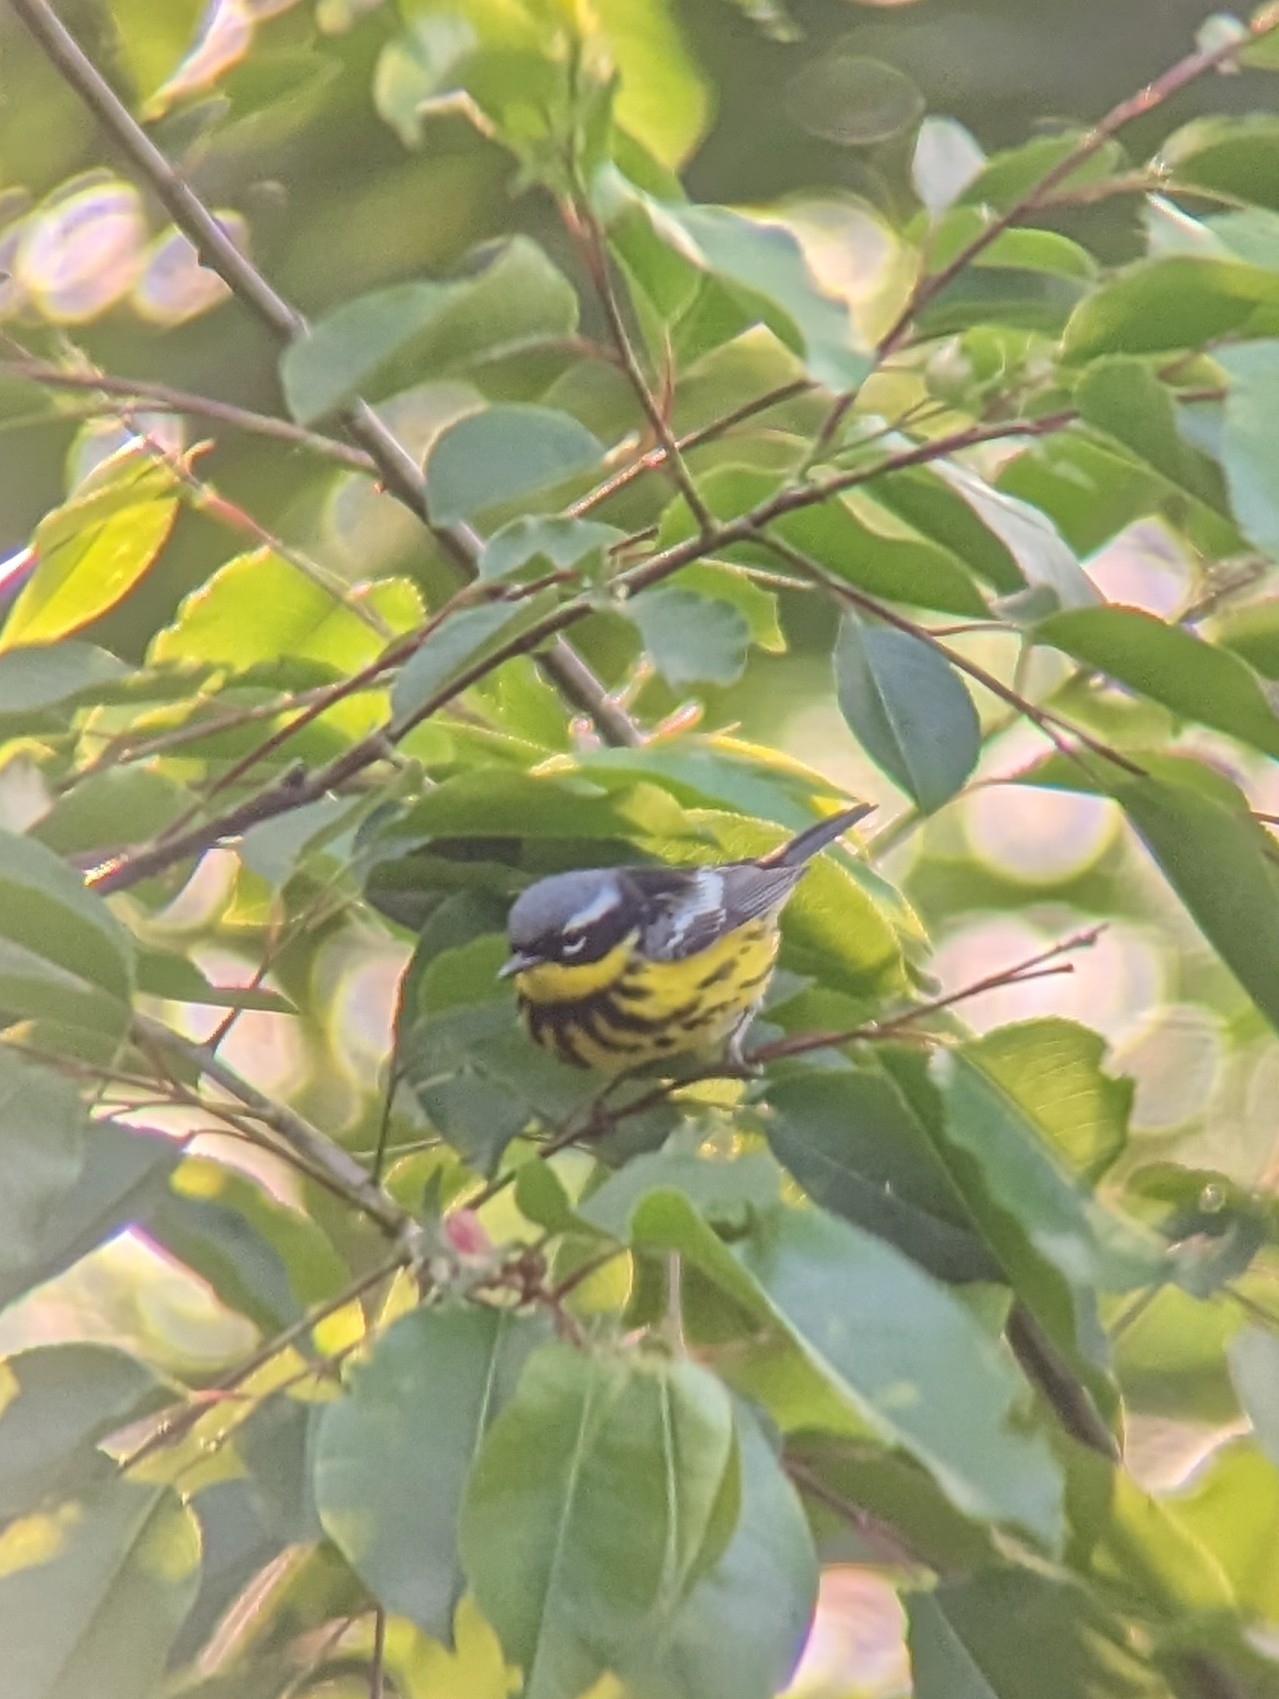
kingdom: Animalia
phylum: Chordata
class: Aves
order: Passeriformes
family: Parulidae
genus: Setophaga
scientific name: Setophaga magnolia
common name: Magnolia warbler
